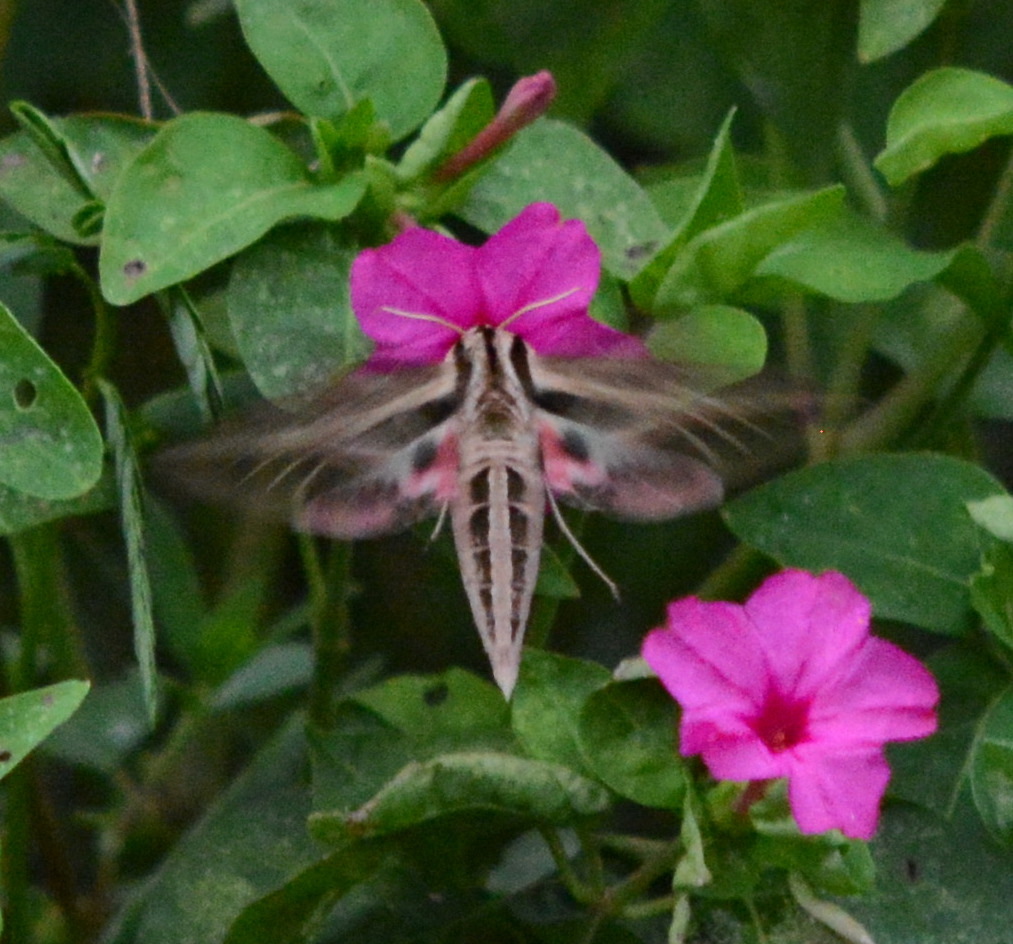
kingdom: Animalia
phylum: Arthropoda
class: Insecta
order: Lepidoptera
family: Sphingidae
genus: Eumorpha
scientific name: Eumorpha fasciatus
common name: Banded sphinx
